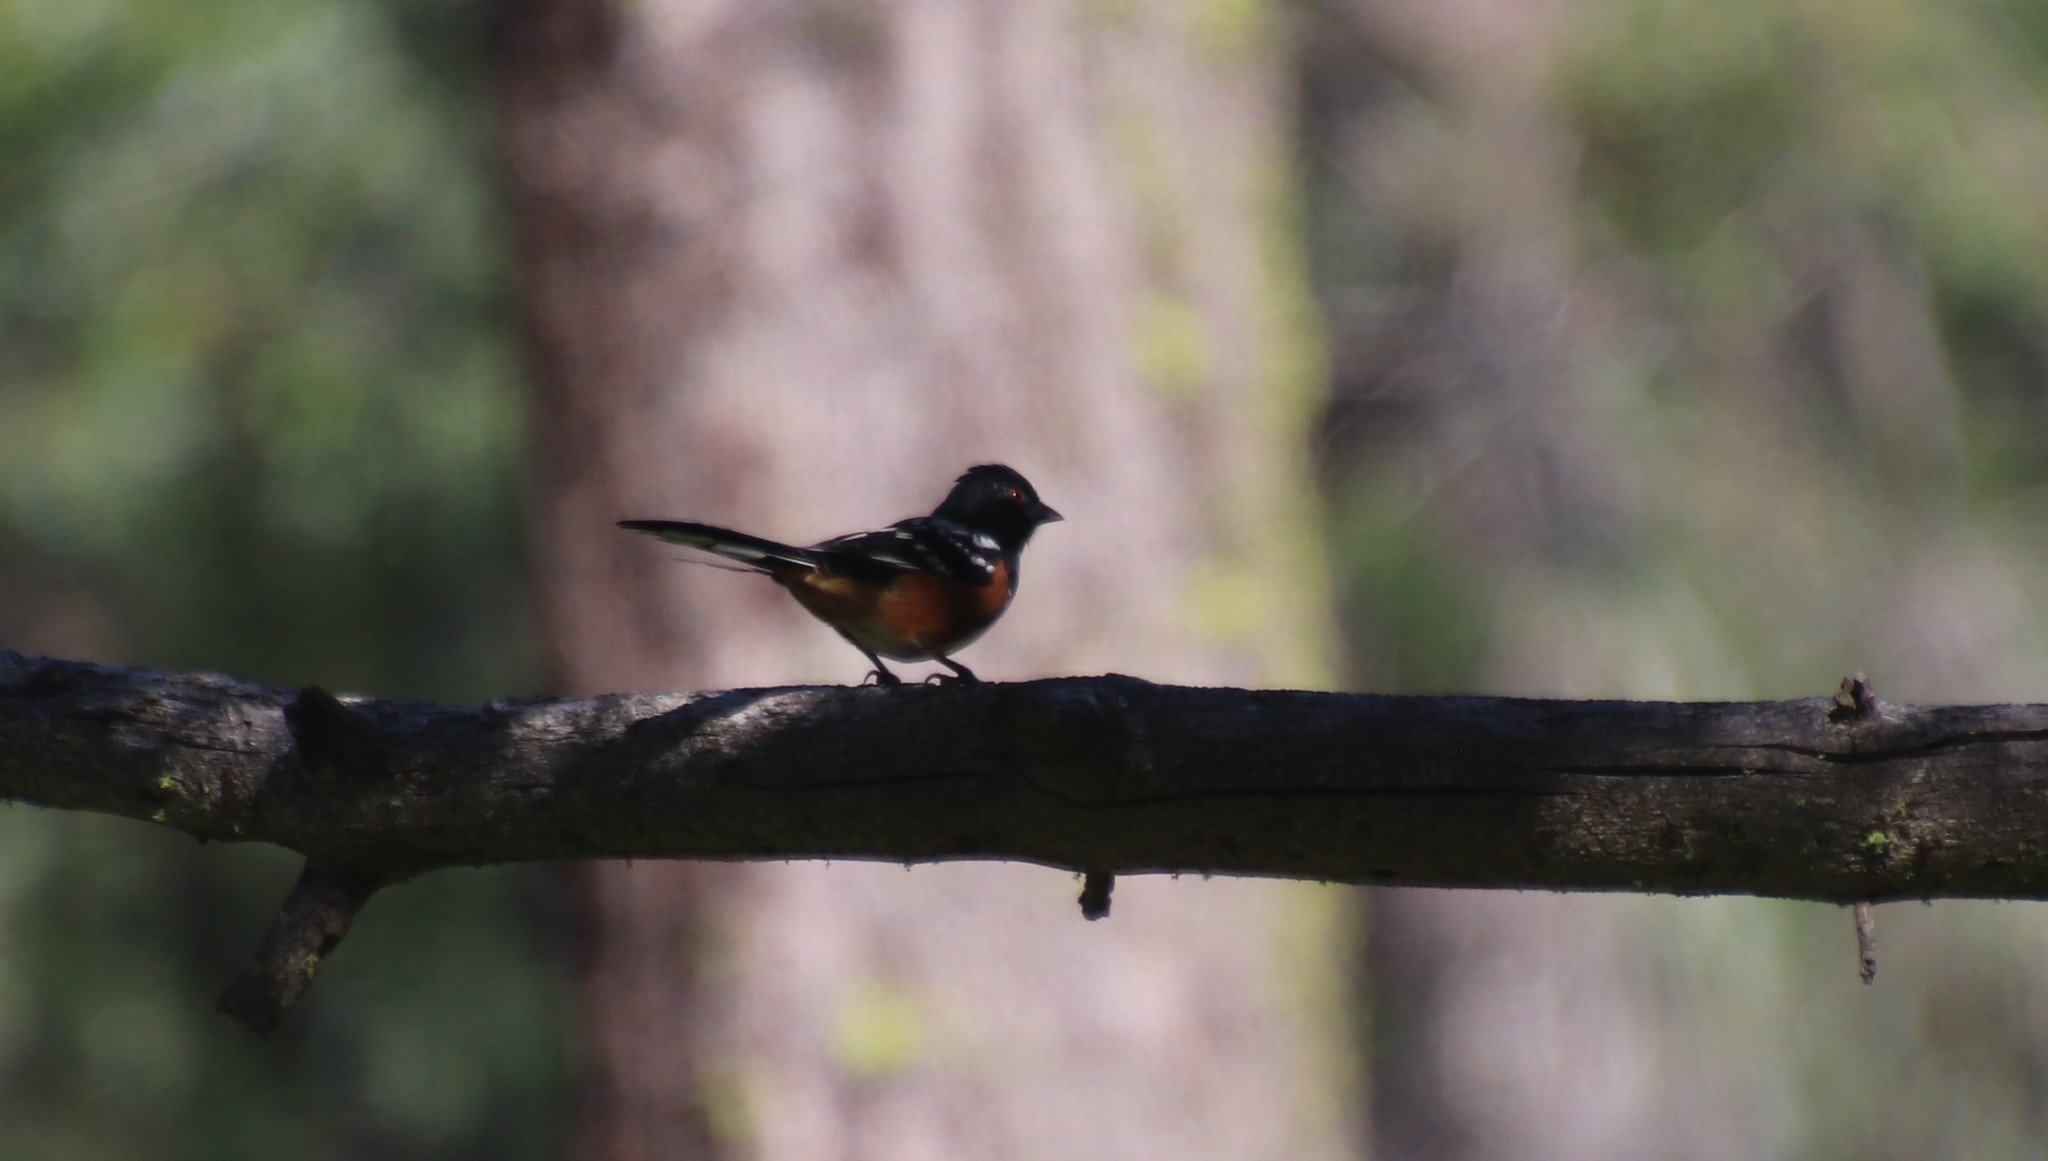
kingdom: Animalia
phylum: Chordata
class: Aves
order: Passeriformes
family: Passerellidae
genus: Pipilo
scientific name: Pipilo maculatus
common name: Spotted towhee
